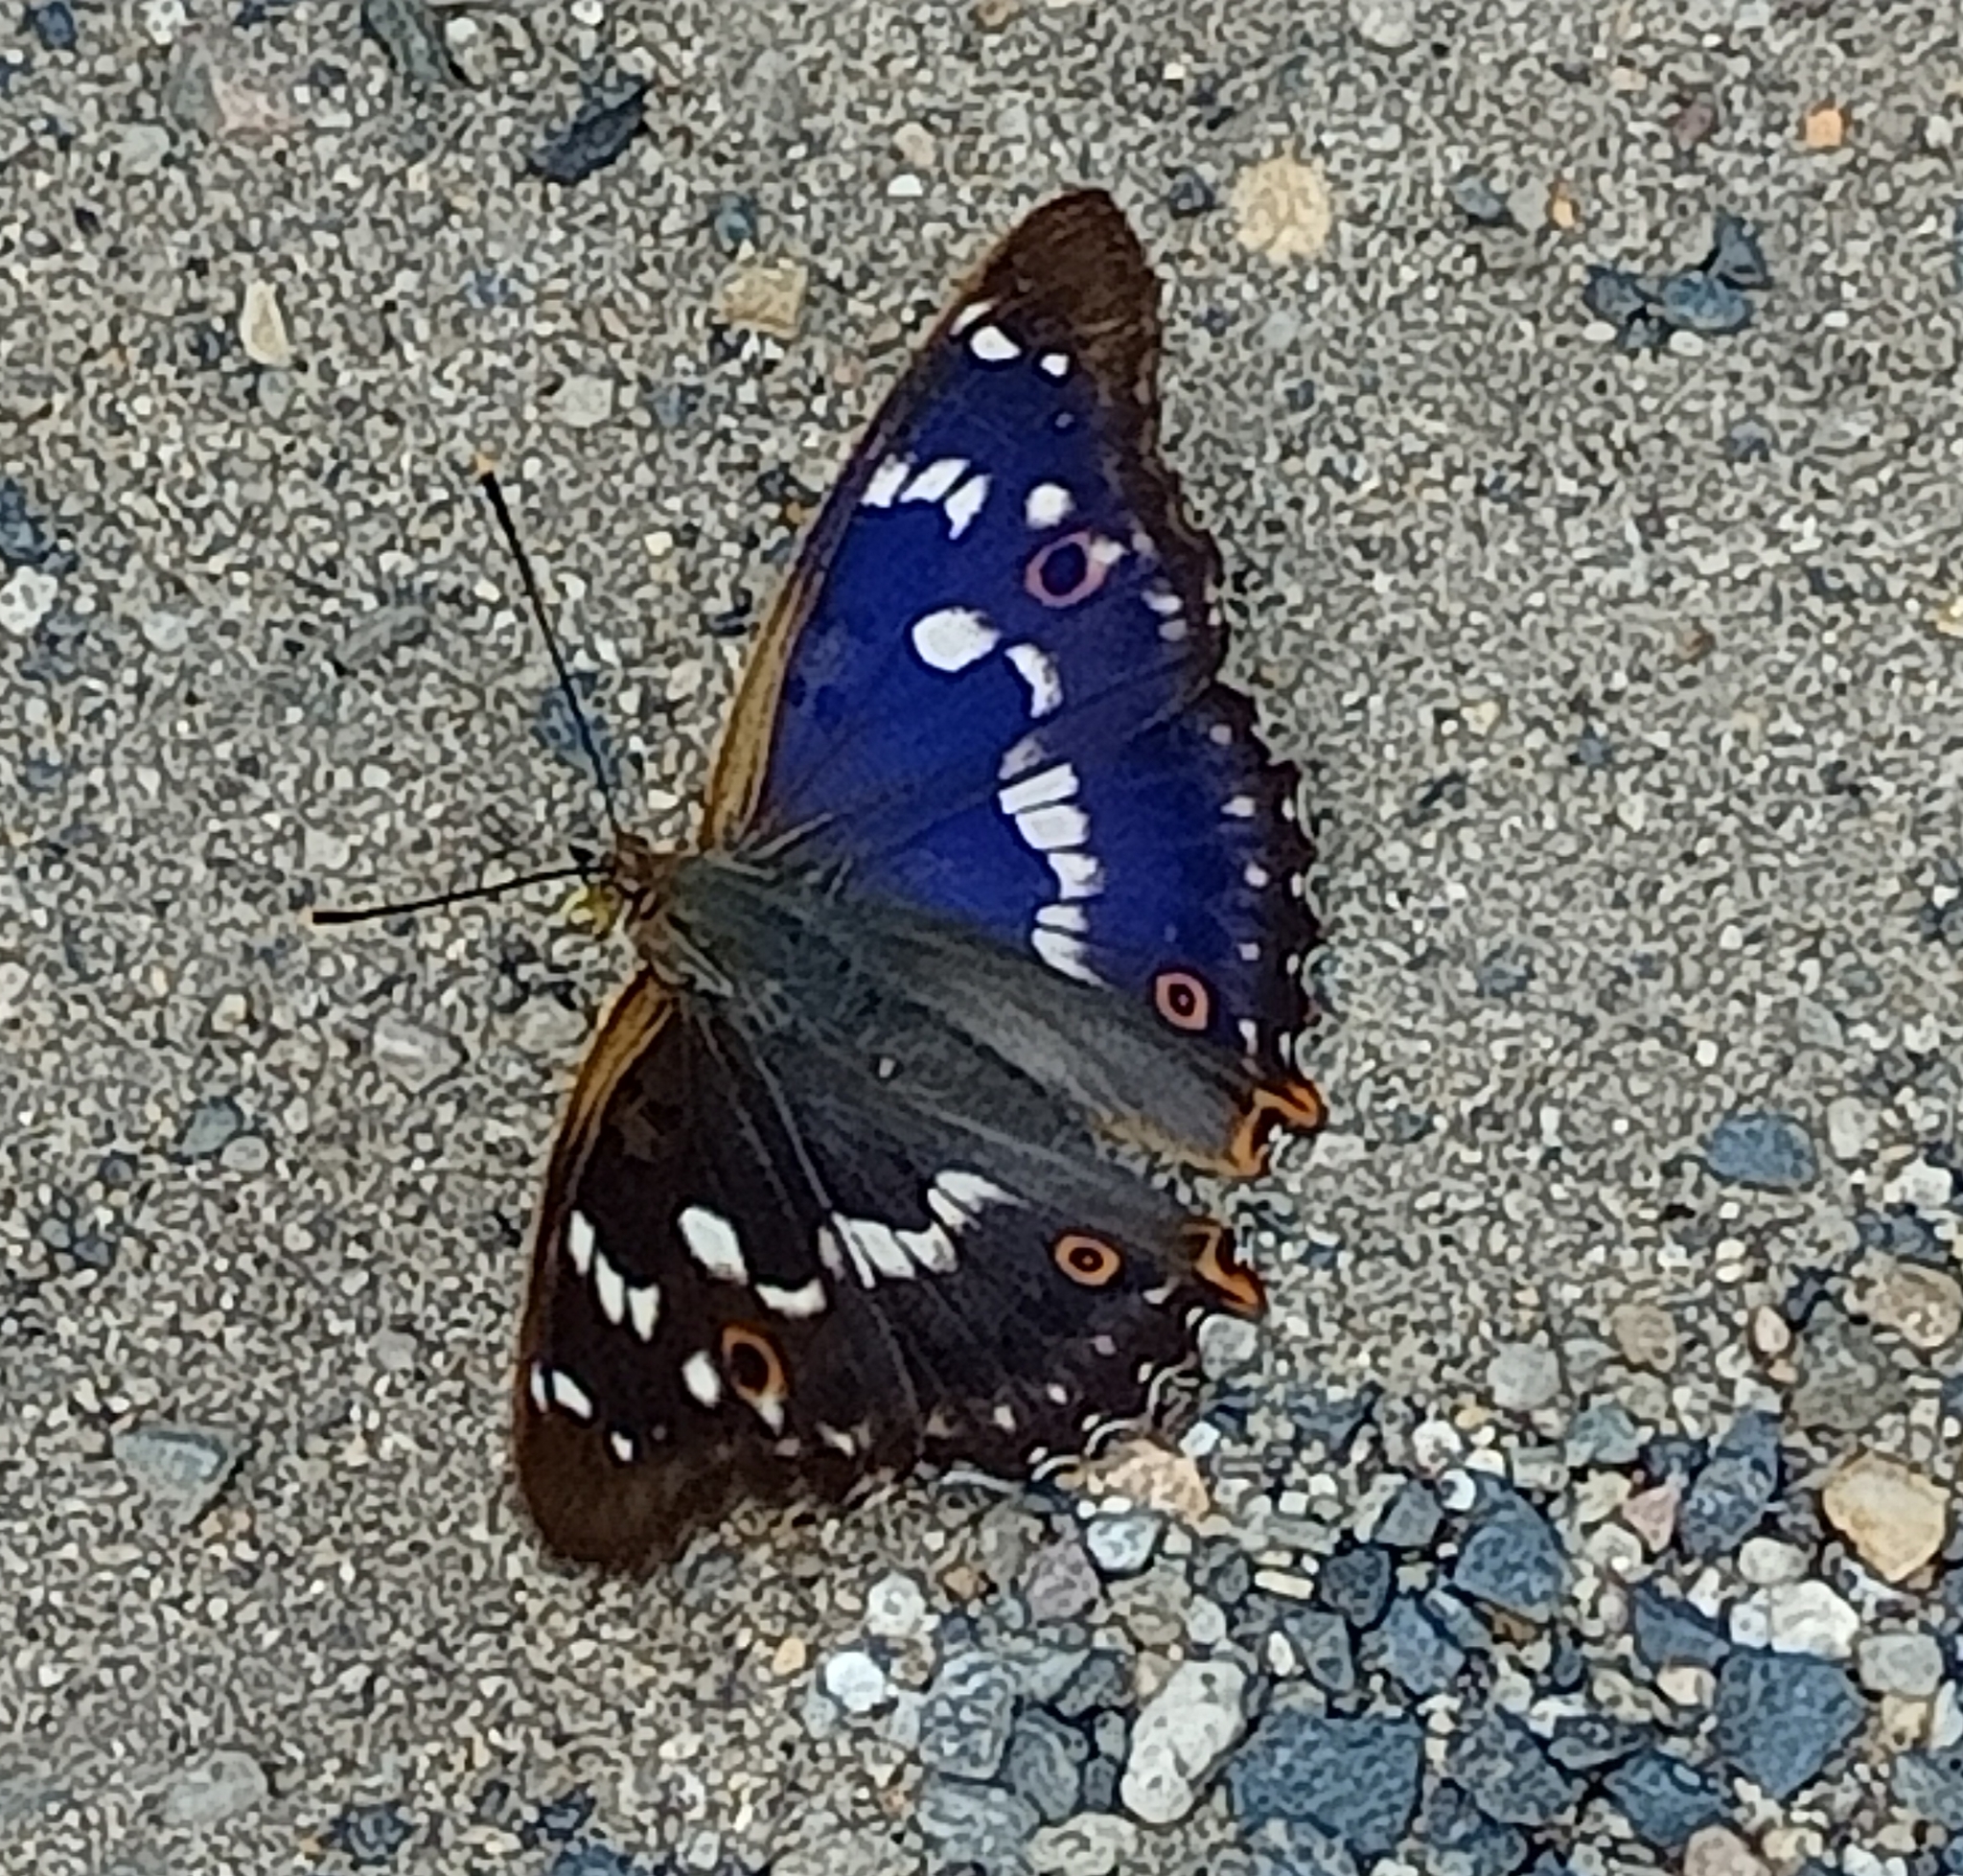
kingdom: Animalia
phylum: Arthropoda
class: Insecta
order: Lepidoptera
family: Nymphalidae
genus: Apatura
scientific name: Apatura ilia
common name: Lesser purple emperor
